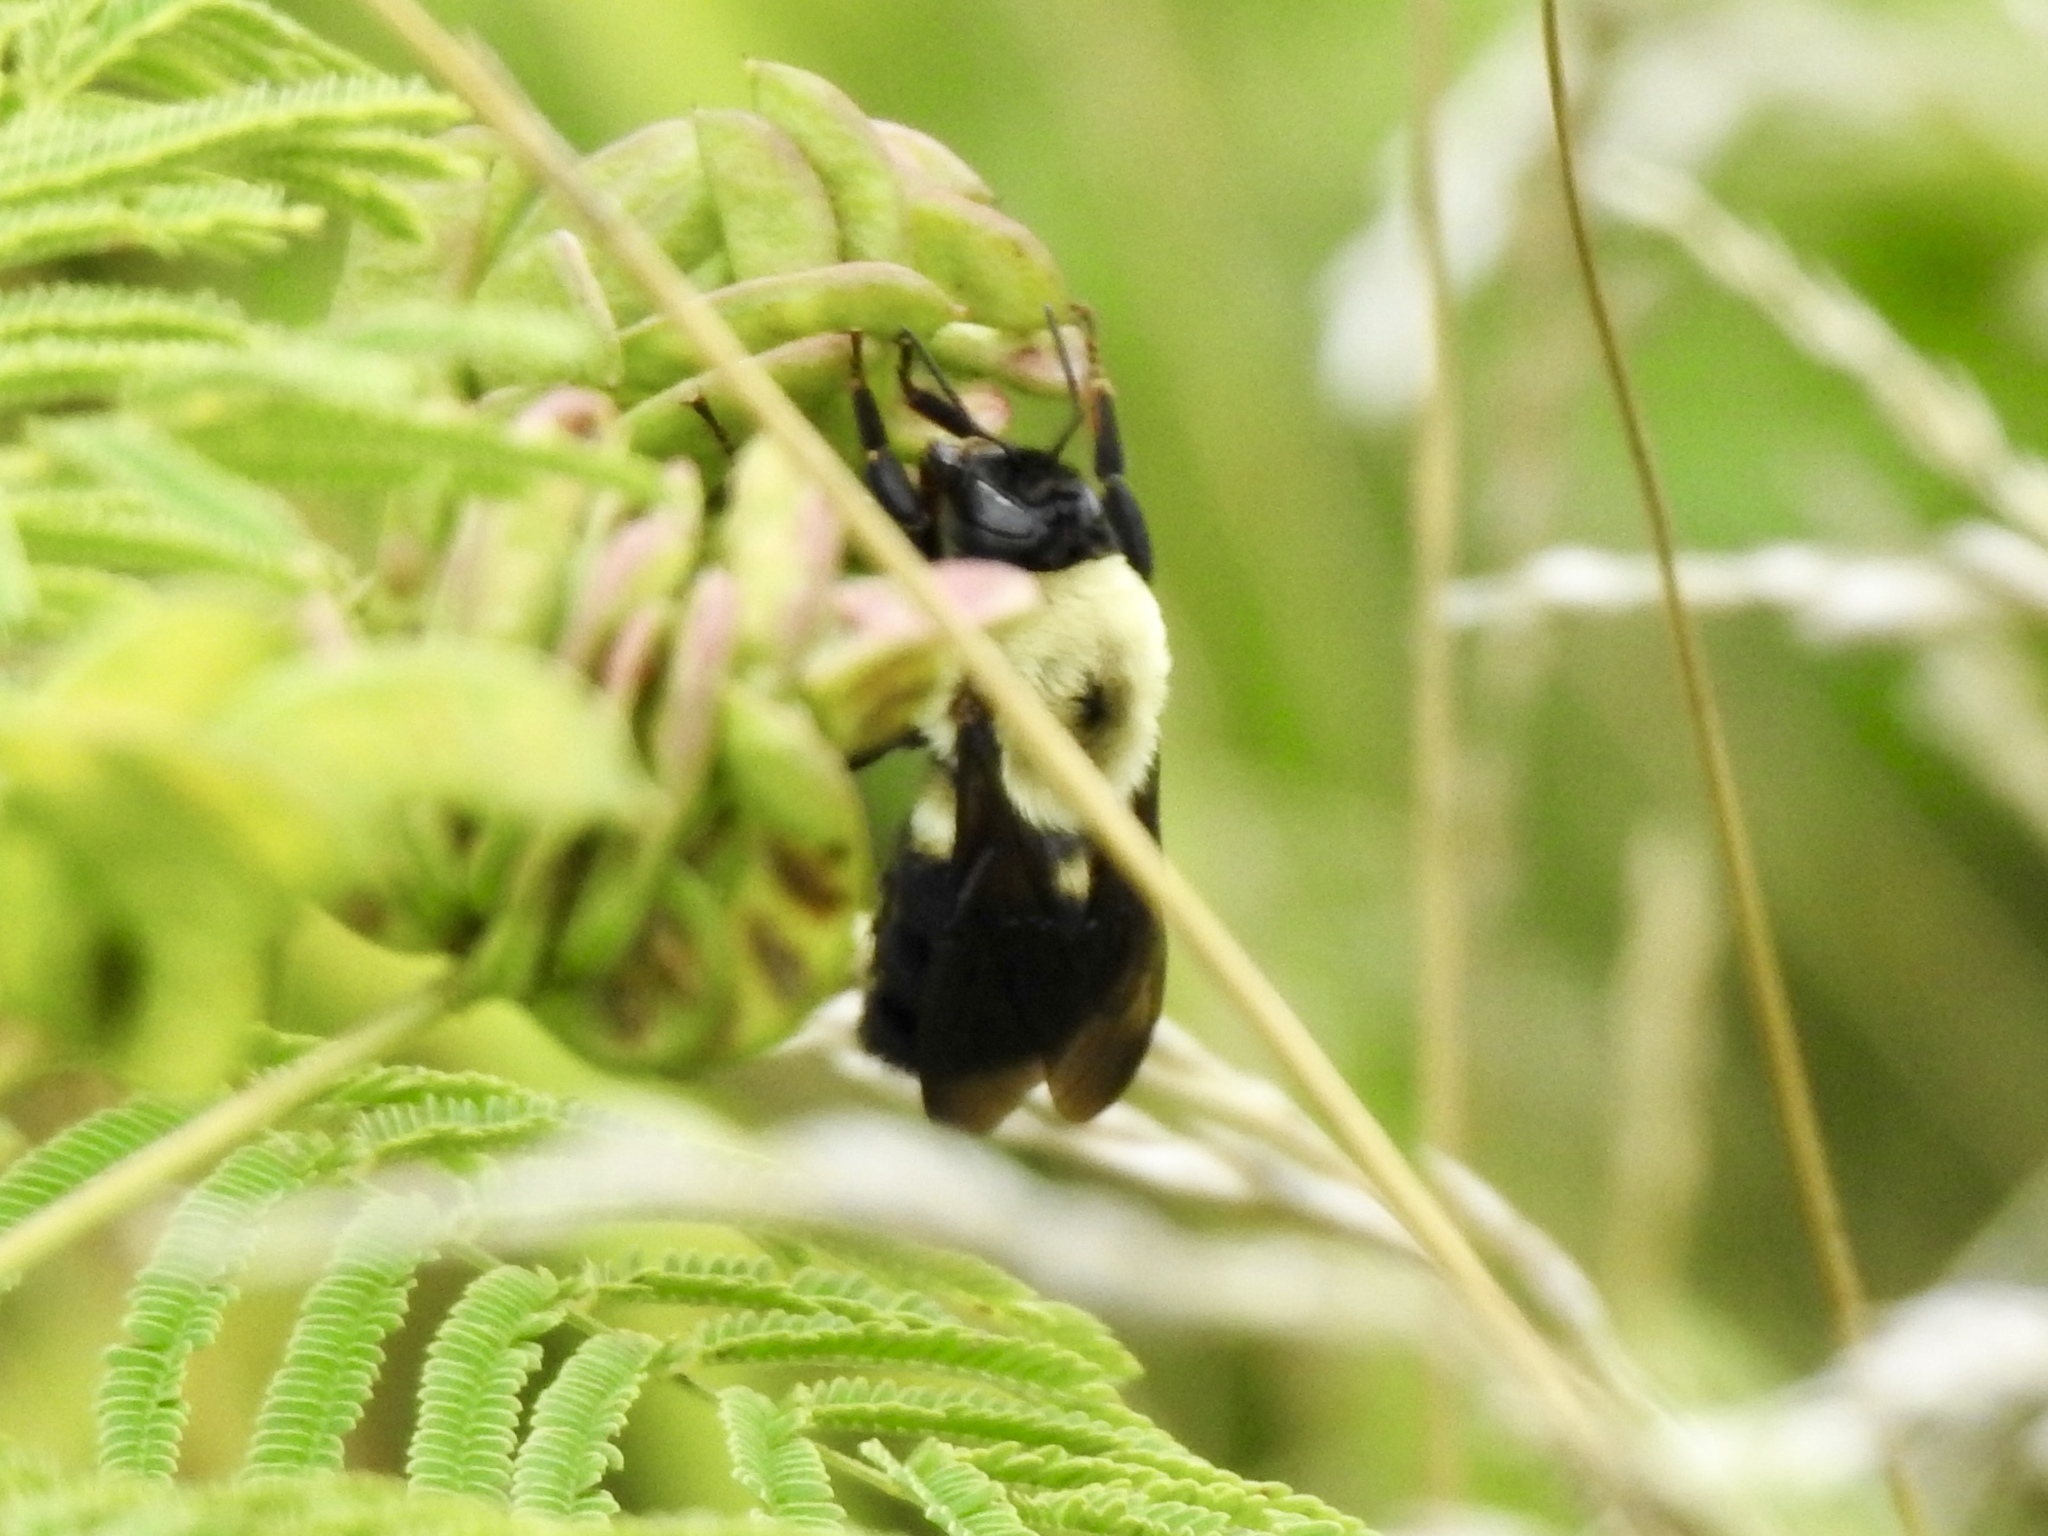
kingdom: Animalia
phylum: Arthropoda
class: Insecta
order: Hymenoptera
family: Apidae
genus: Bombus
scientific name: Bombus griseocollis
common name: Brown-belted bumble bee
